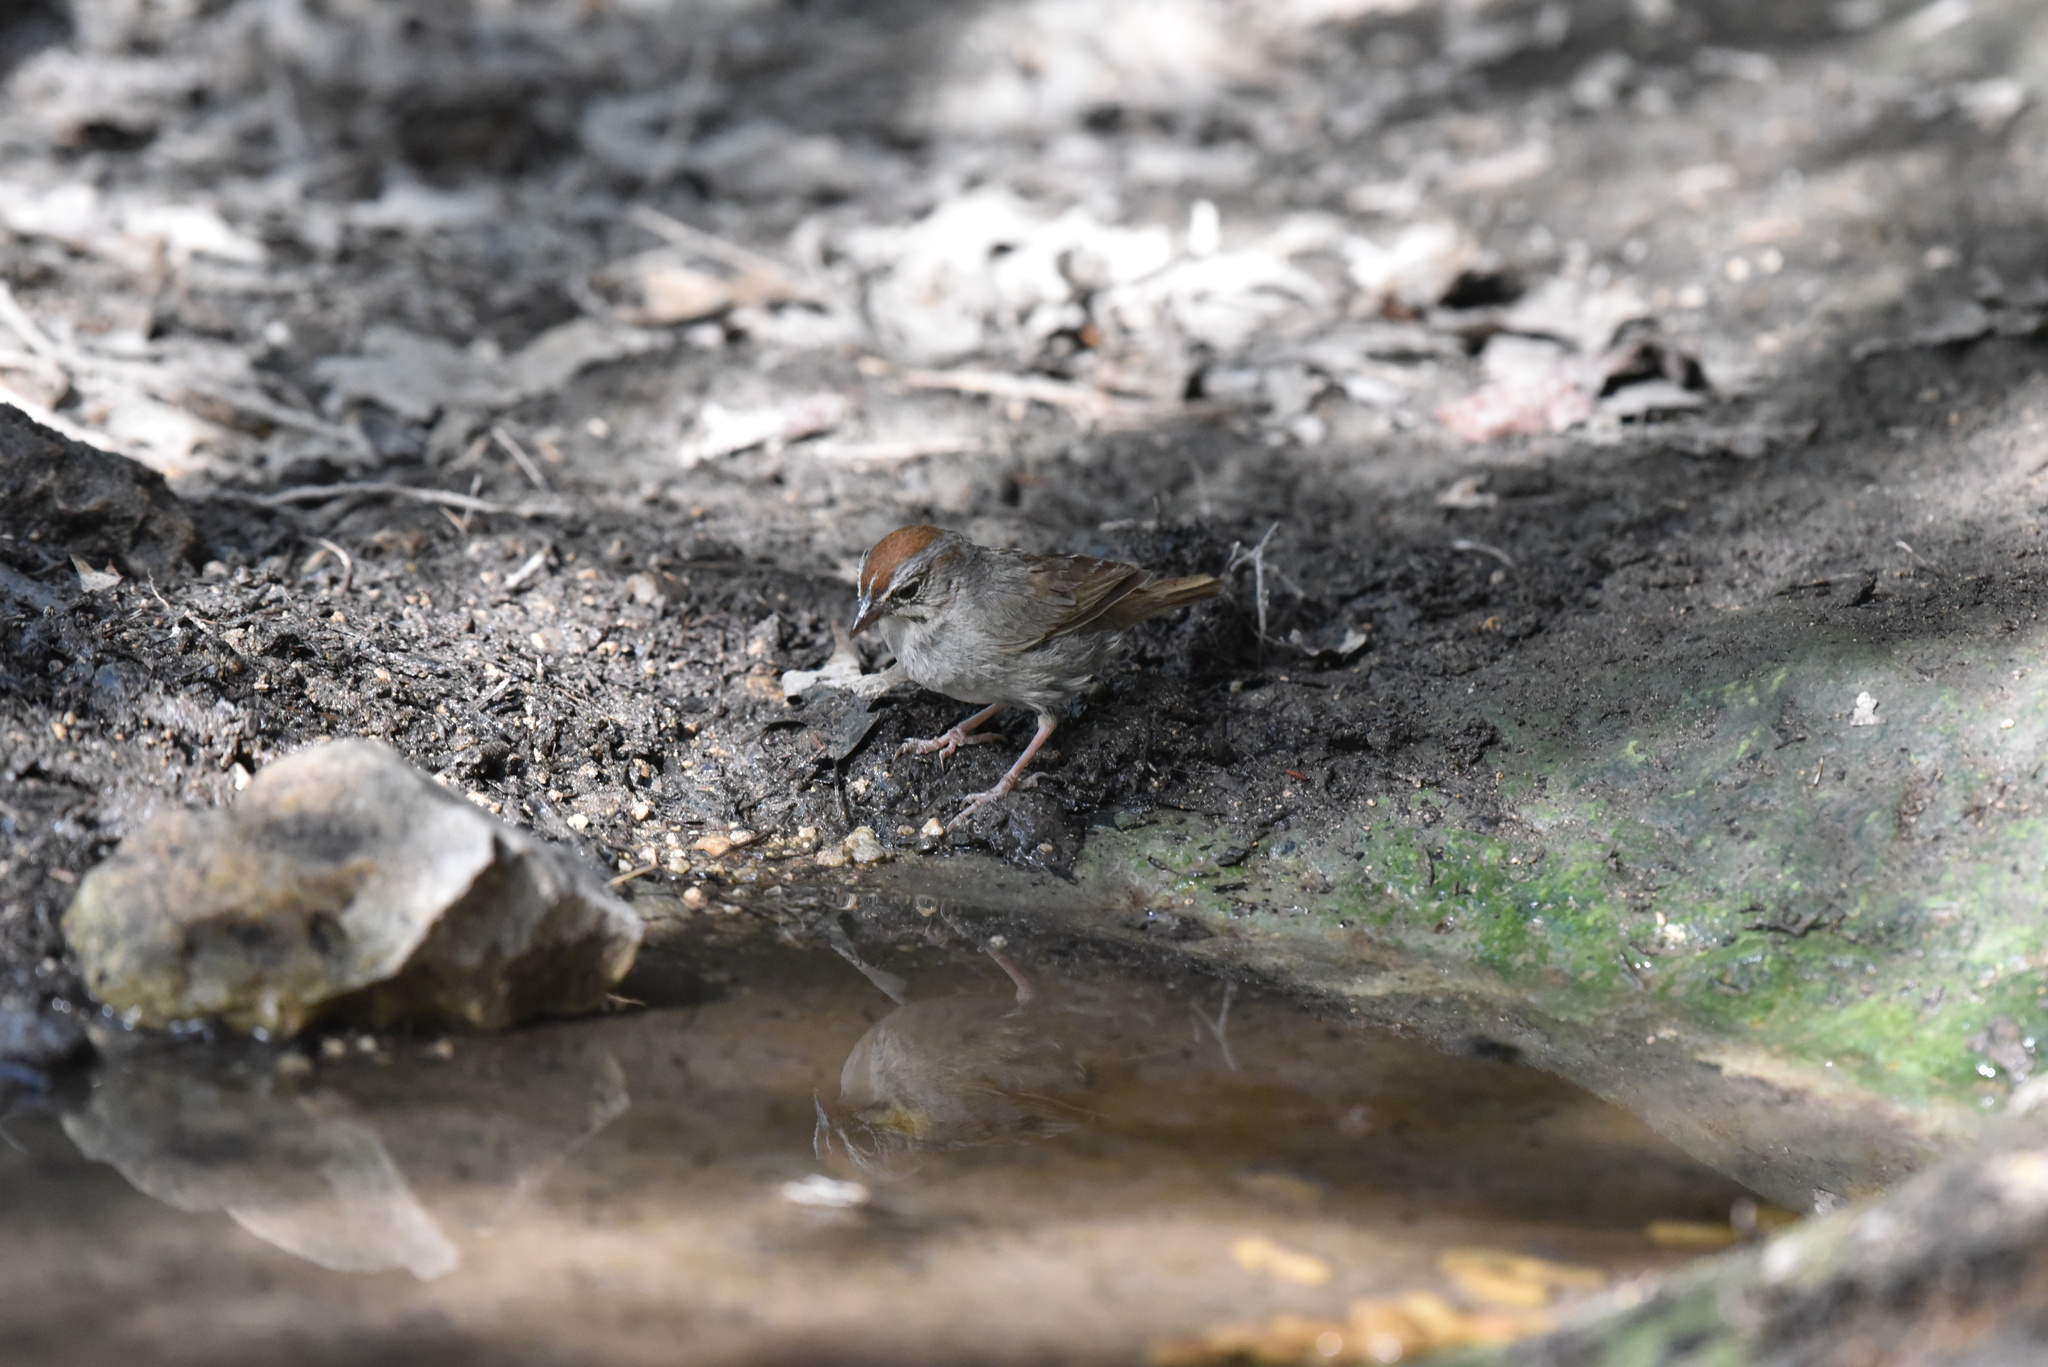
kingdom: Animalia
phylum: Chordata
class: Aves
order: Passeriformes
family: Passerellidae
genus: Aimophila
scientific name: Aimophila ruficeps
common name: Rufous-crowned sparrow
